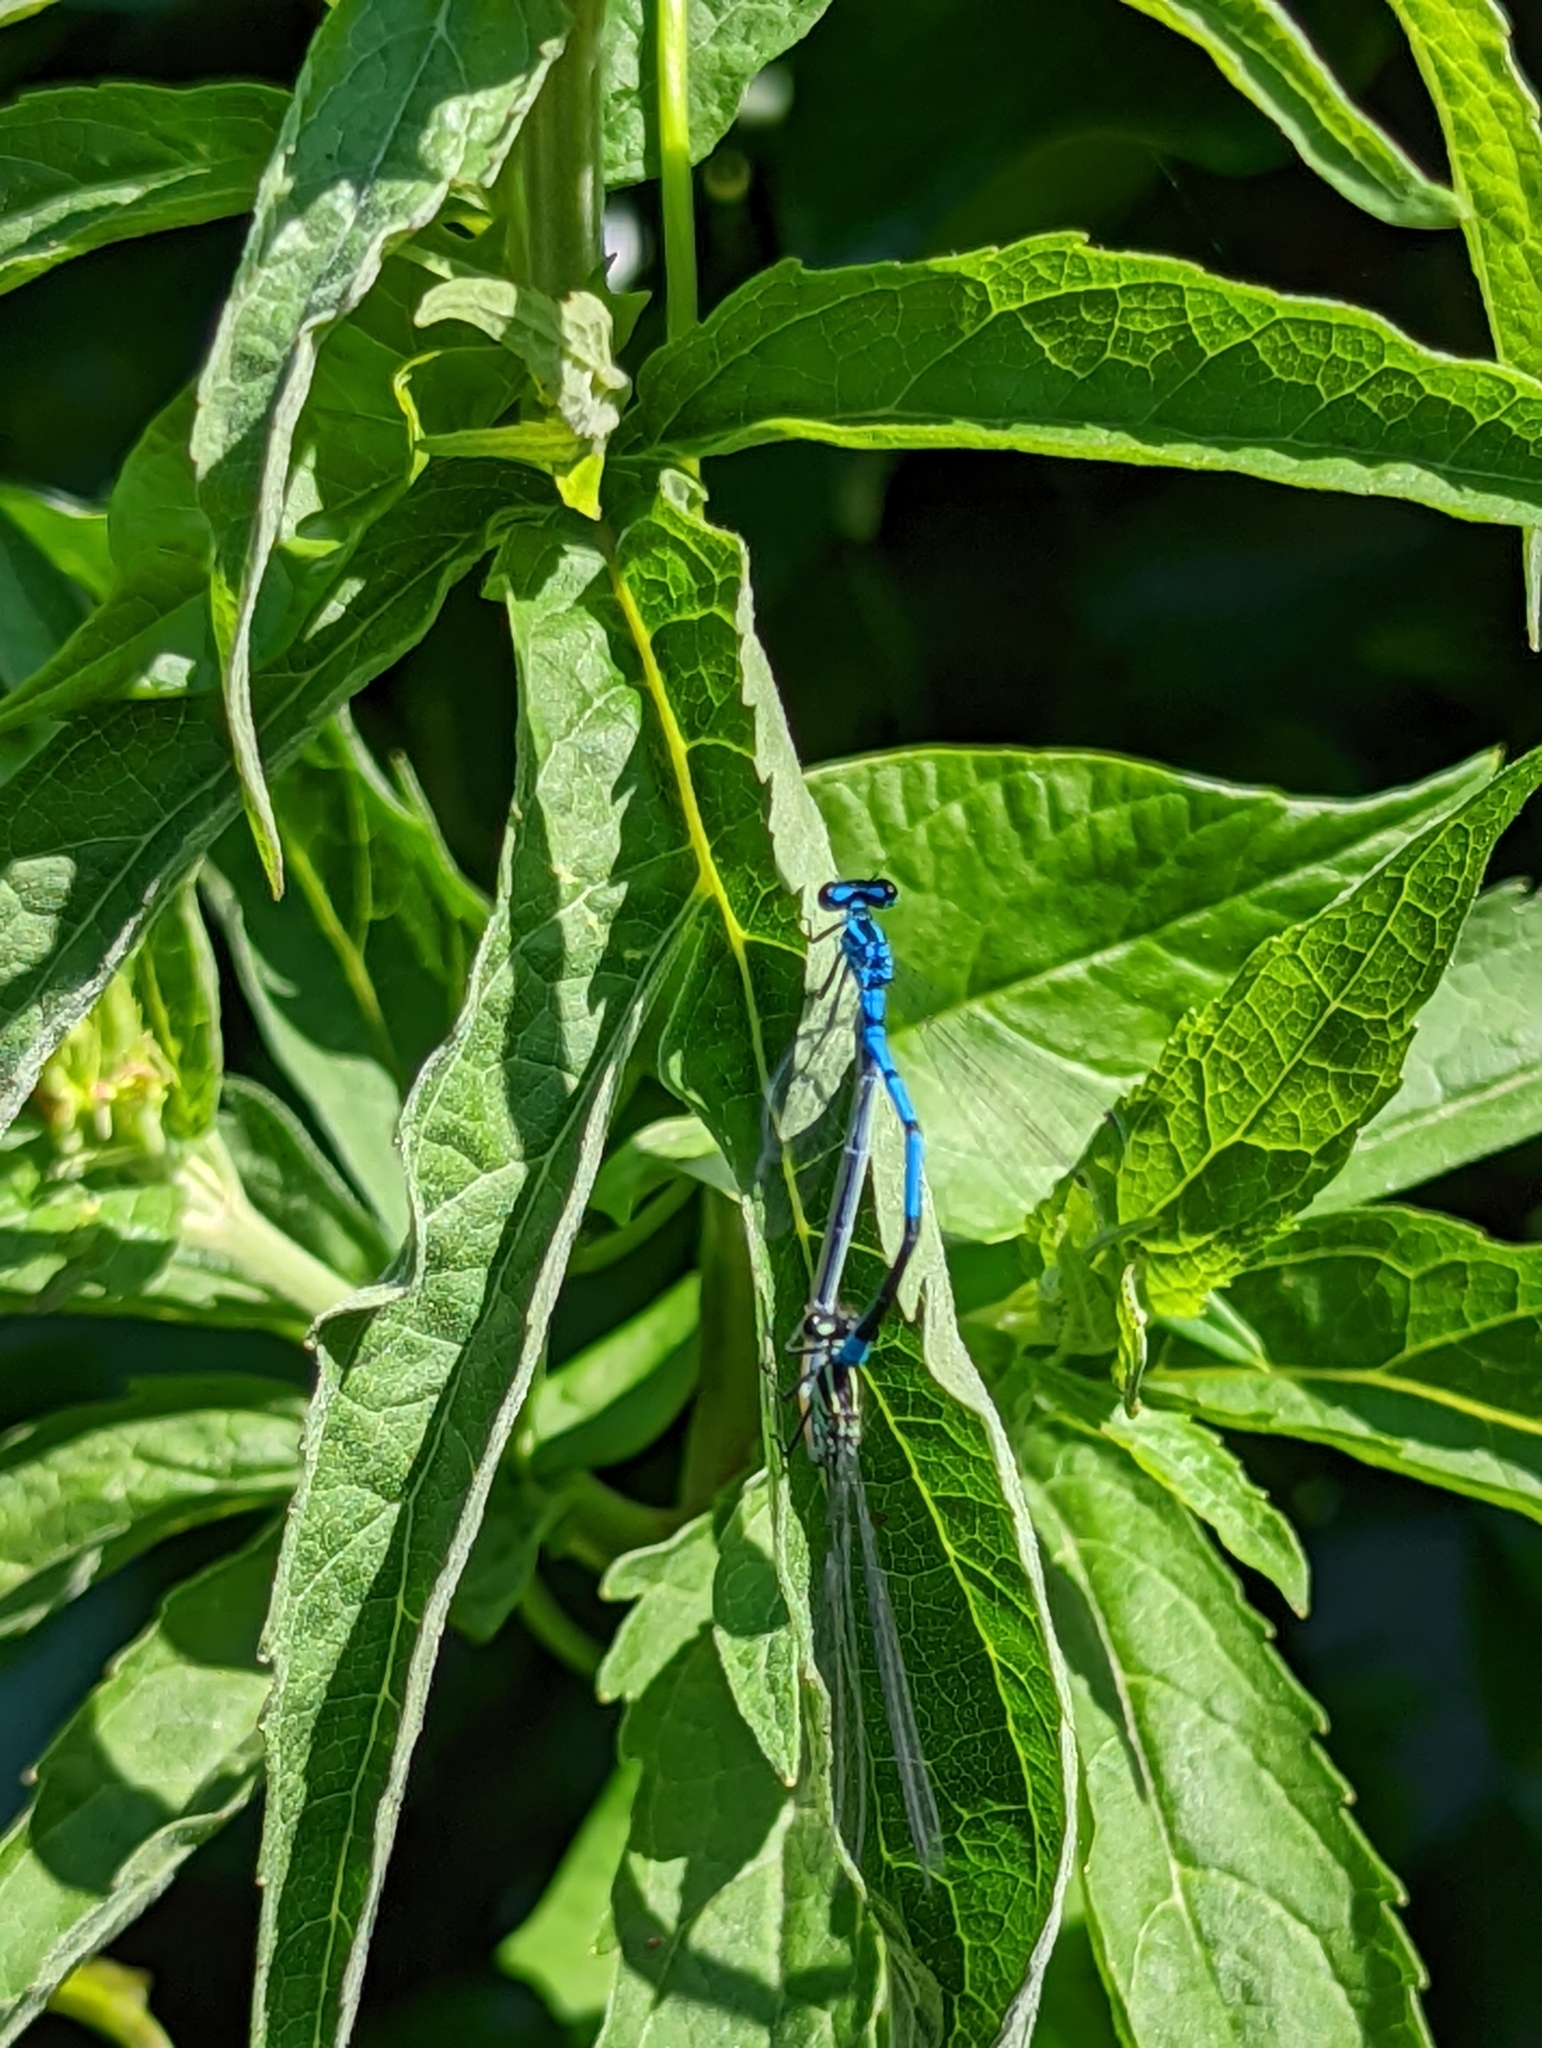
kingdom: Animalia
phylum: Arthropoda
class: Insecta
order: Odonata
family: Coenagrionidae
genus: Coenagrion
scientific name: Coenagrion puella
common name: Azure damselfly
